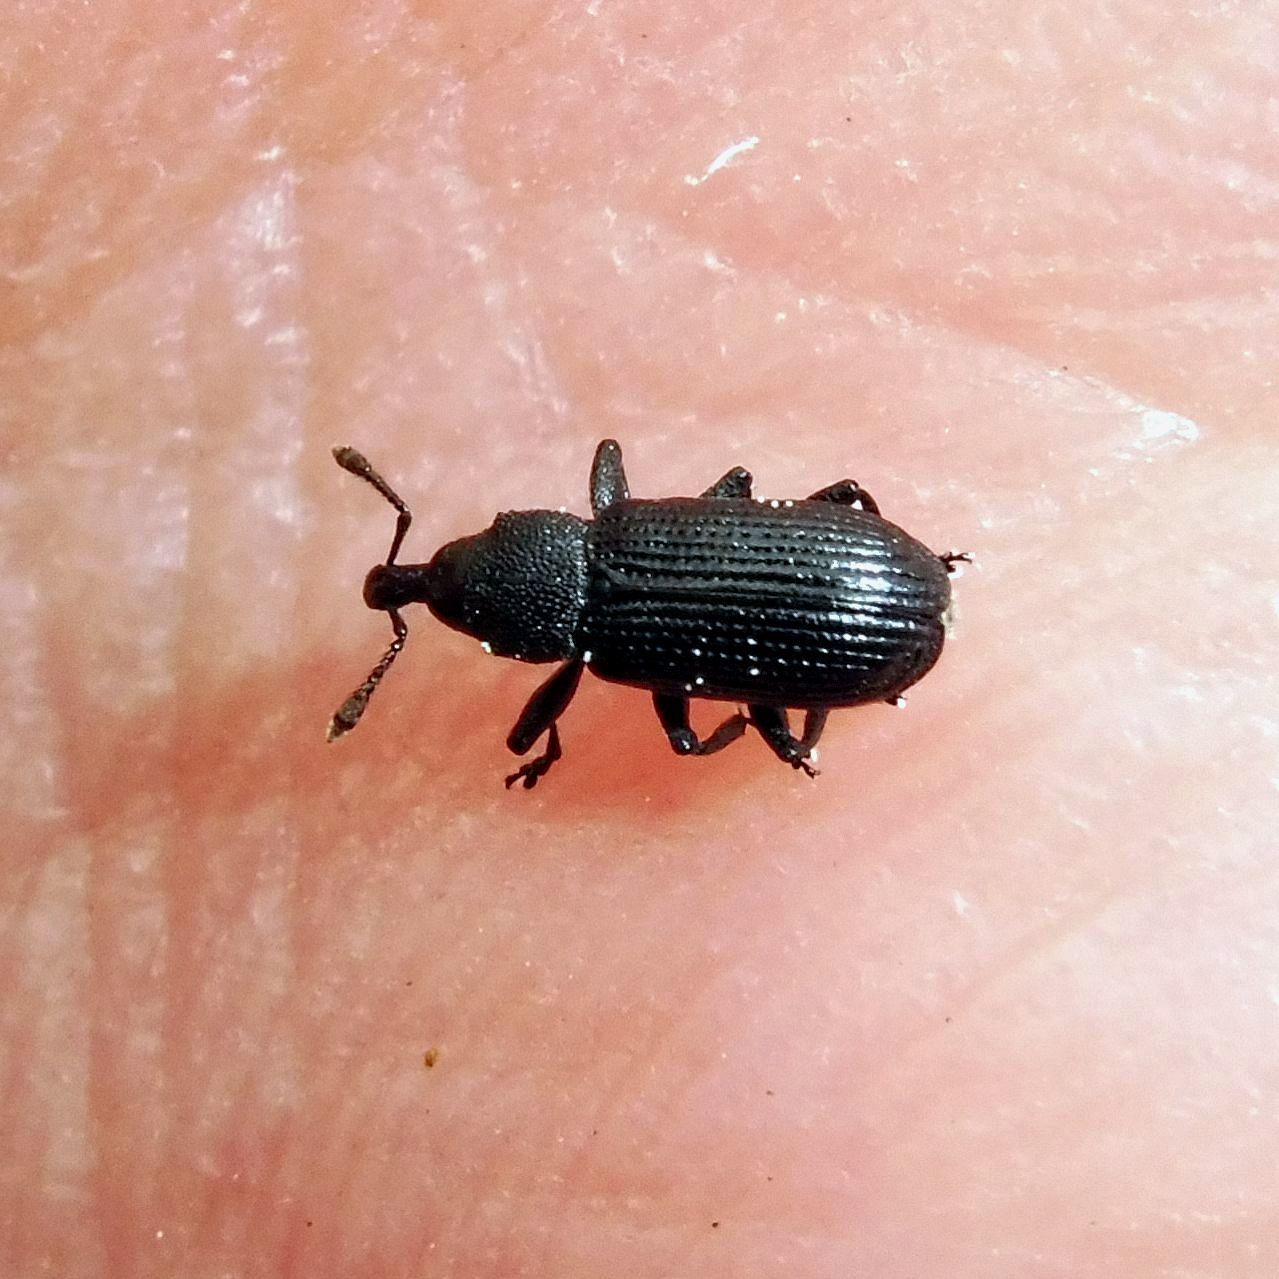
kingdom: Animalia
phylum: Arthropoda
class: Insecta
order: Coleoptera
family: Curculionidae
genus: Magdalis
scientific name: Magdalis carbonaria
